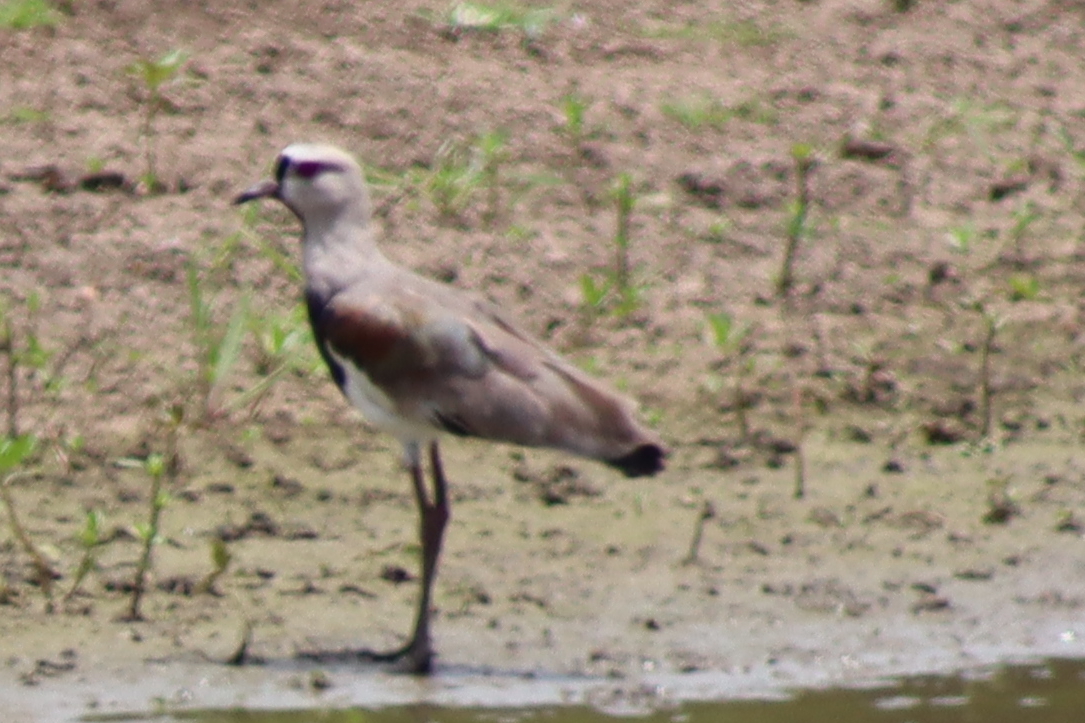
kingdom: Animalia
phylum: Chordata
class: Aves
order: Charadriiformes
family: Charadriidae
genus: Vanellus
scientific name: Vanellus chilensis
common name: Southern lapwing
